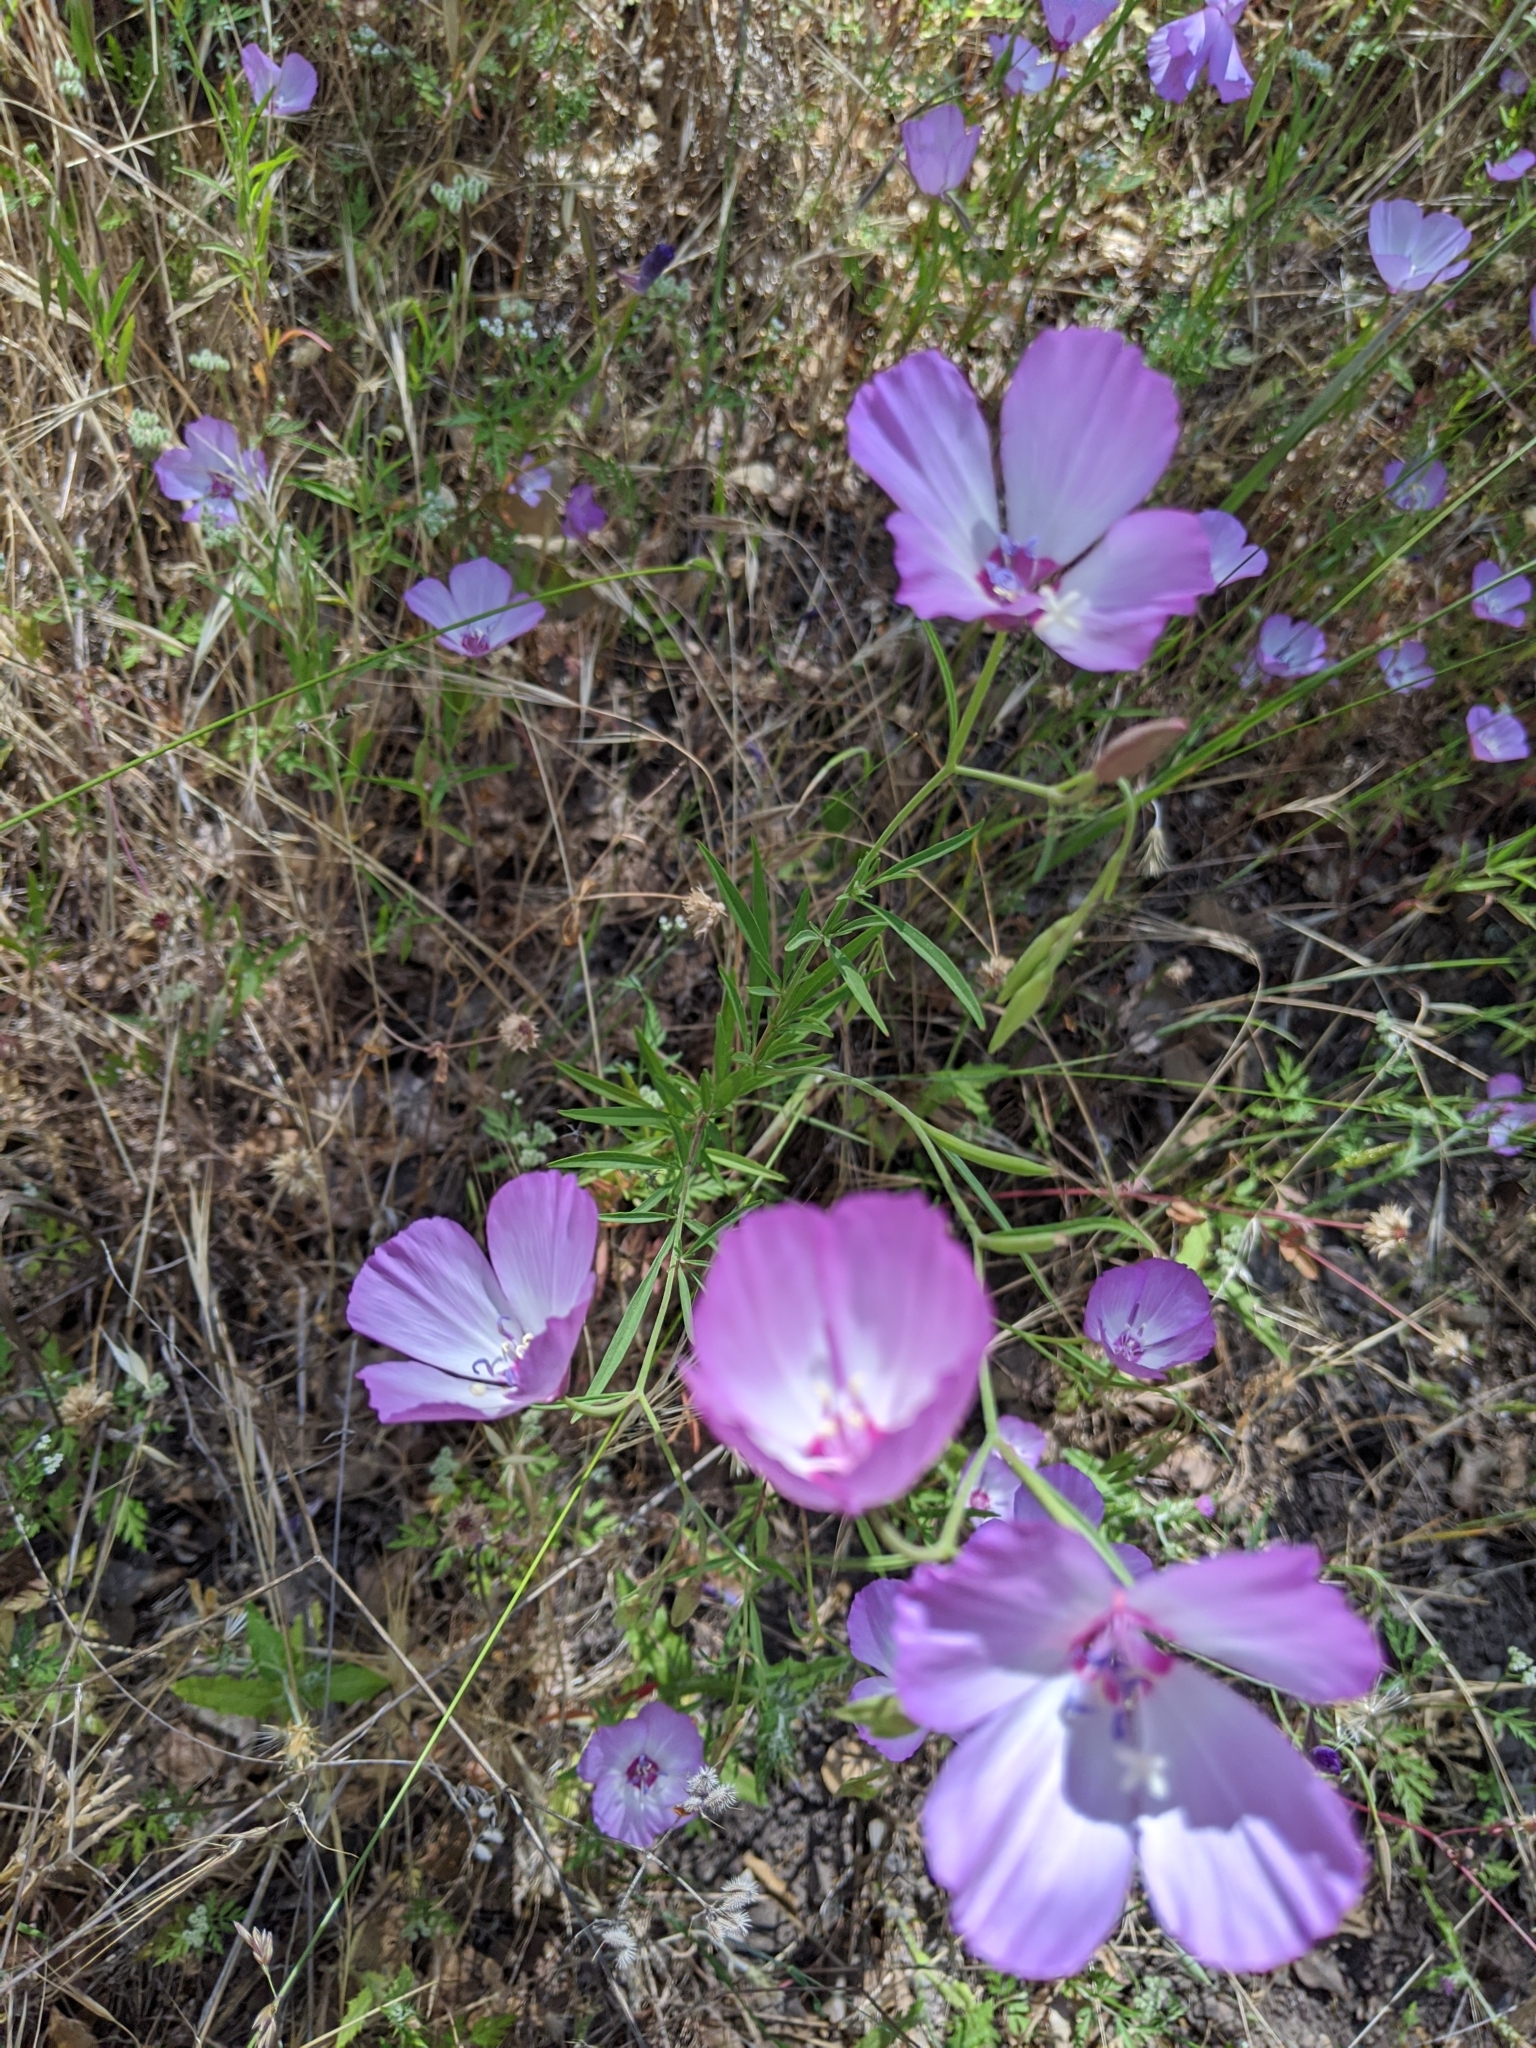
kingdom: Plantae
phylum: Tracheophyta
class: Magnoliopsida
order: Myrtales
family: Onagraceae
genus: Clarkia
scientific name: Clarkia cylindrica
